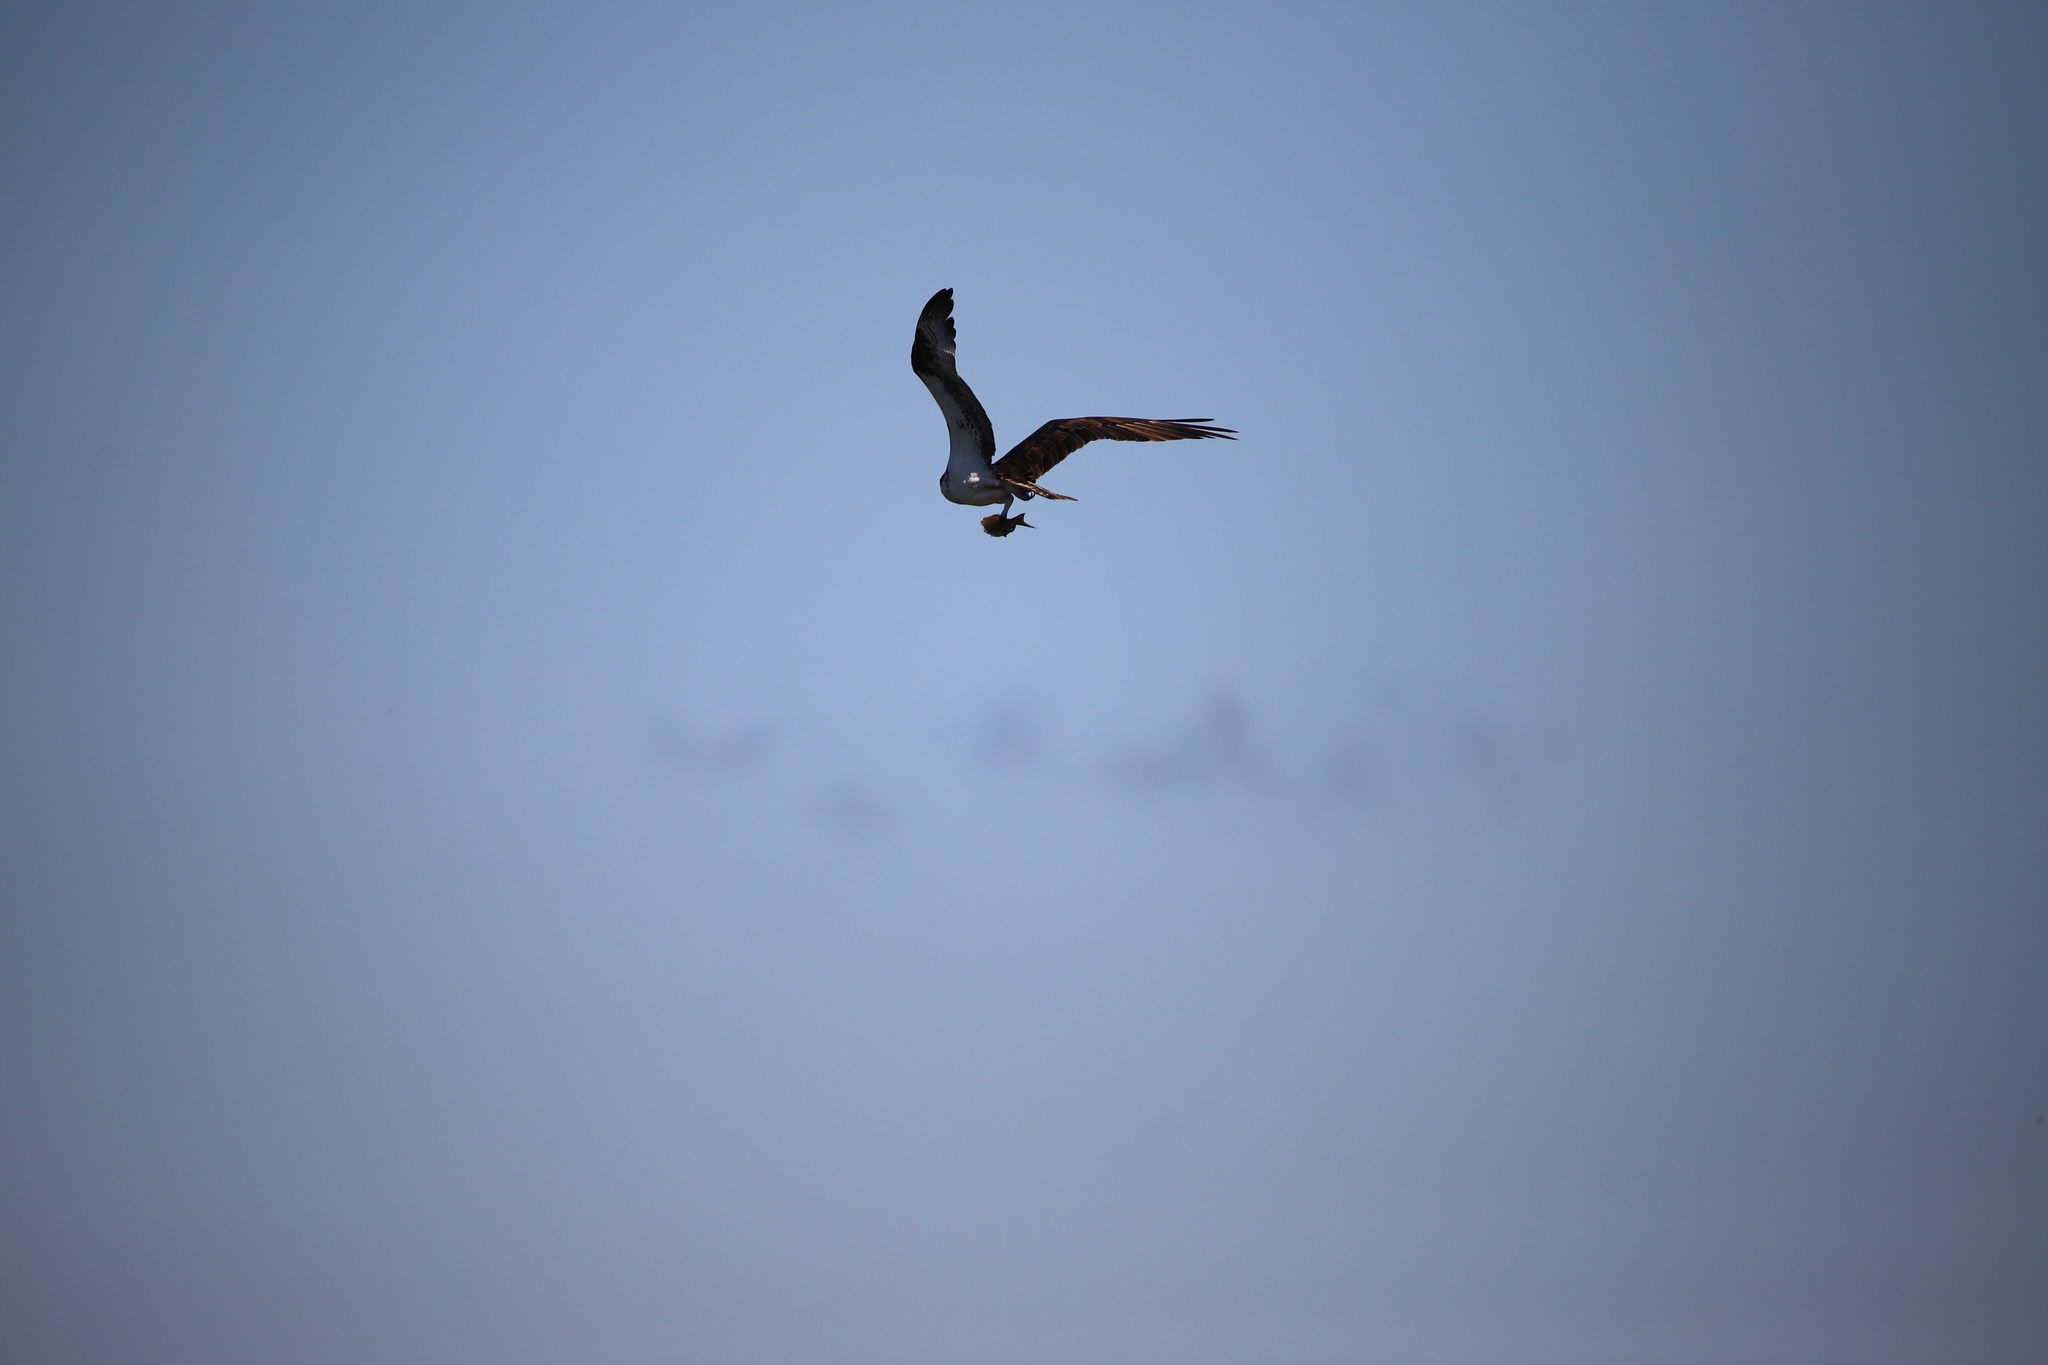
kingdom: Animalia
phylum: Chordata
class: Aves
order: Accipitriformes
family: Pandionidae
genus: Pandion
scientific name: Pandion haliaetus
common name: Osprey
